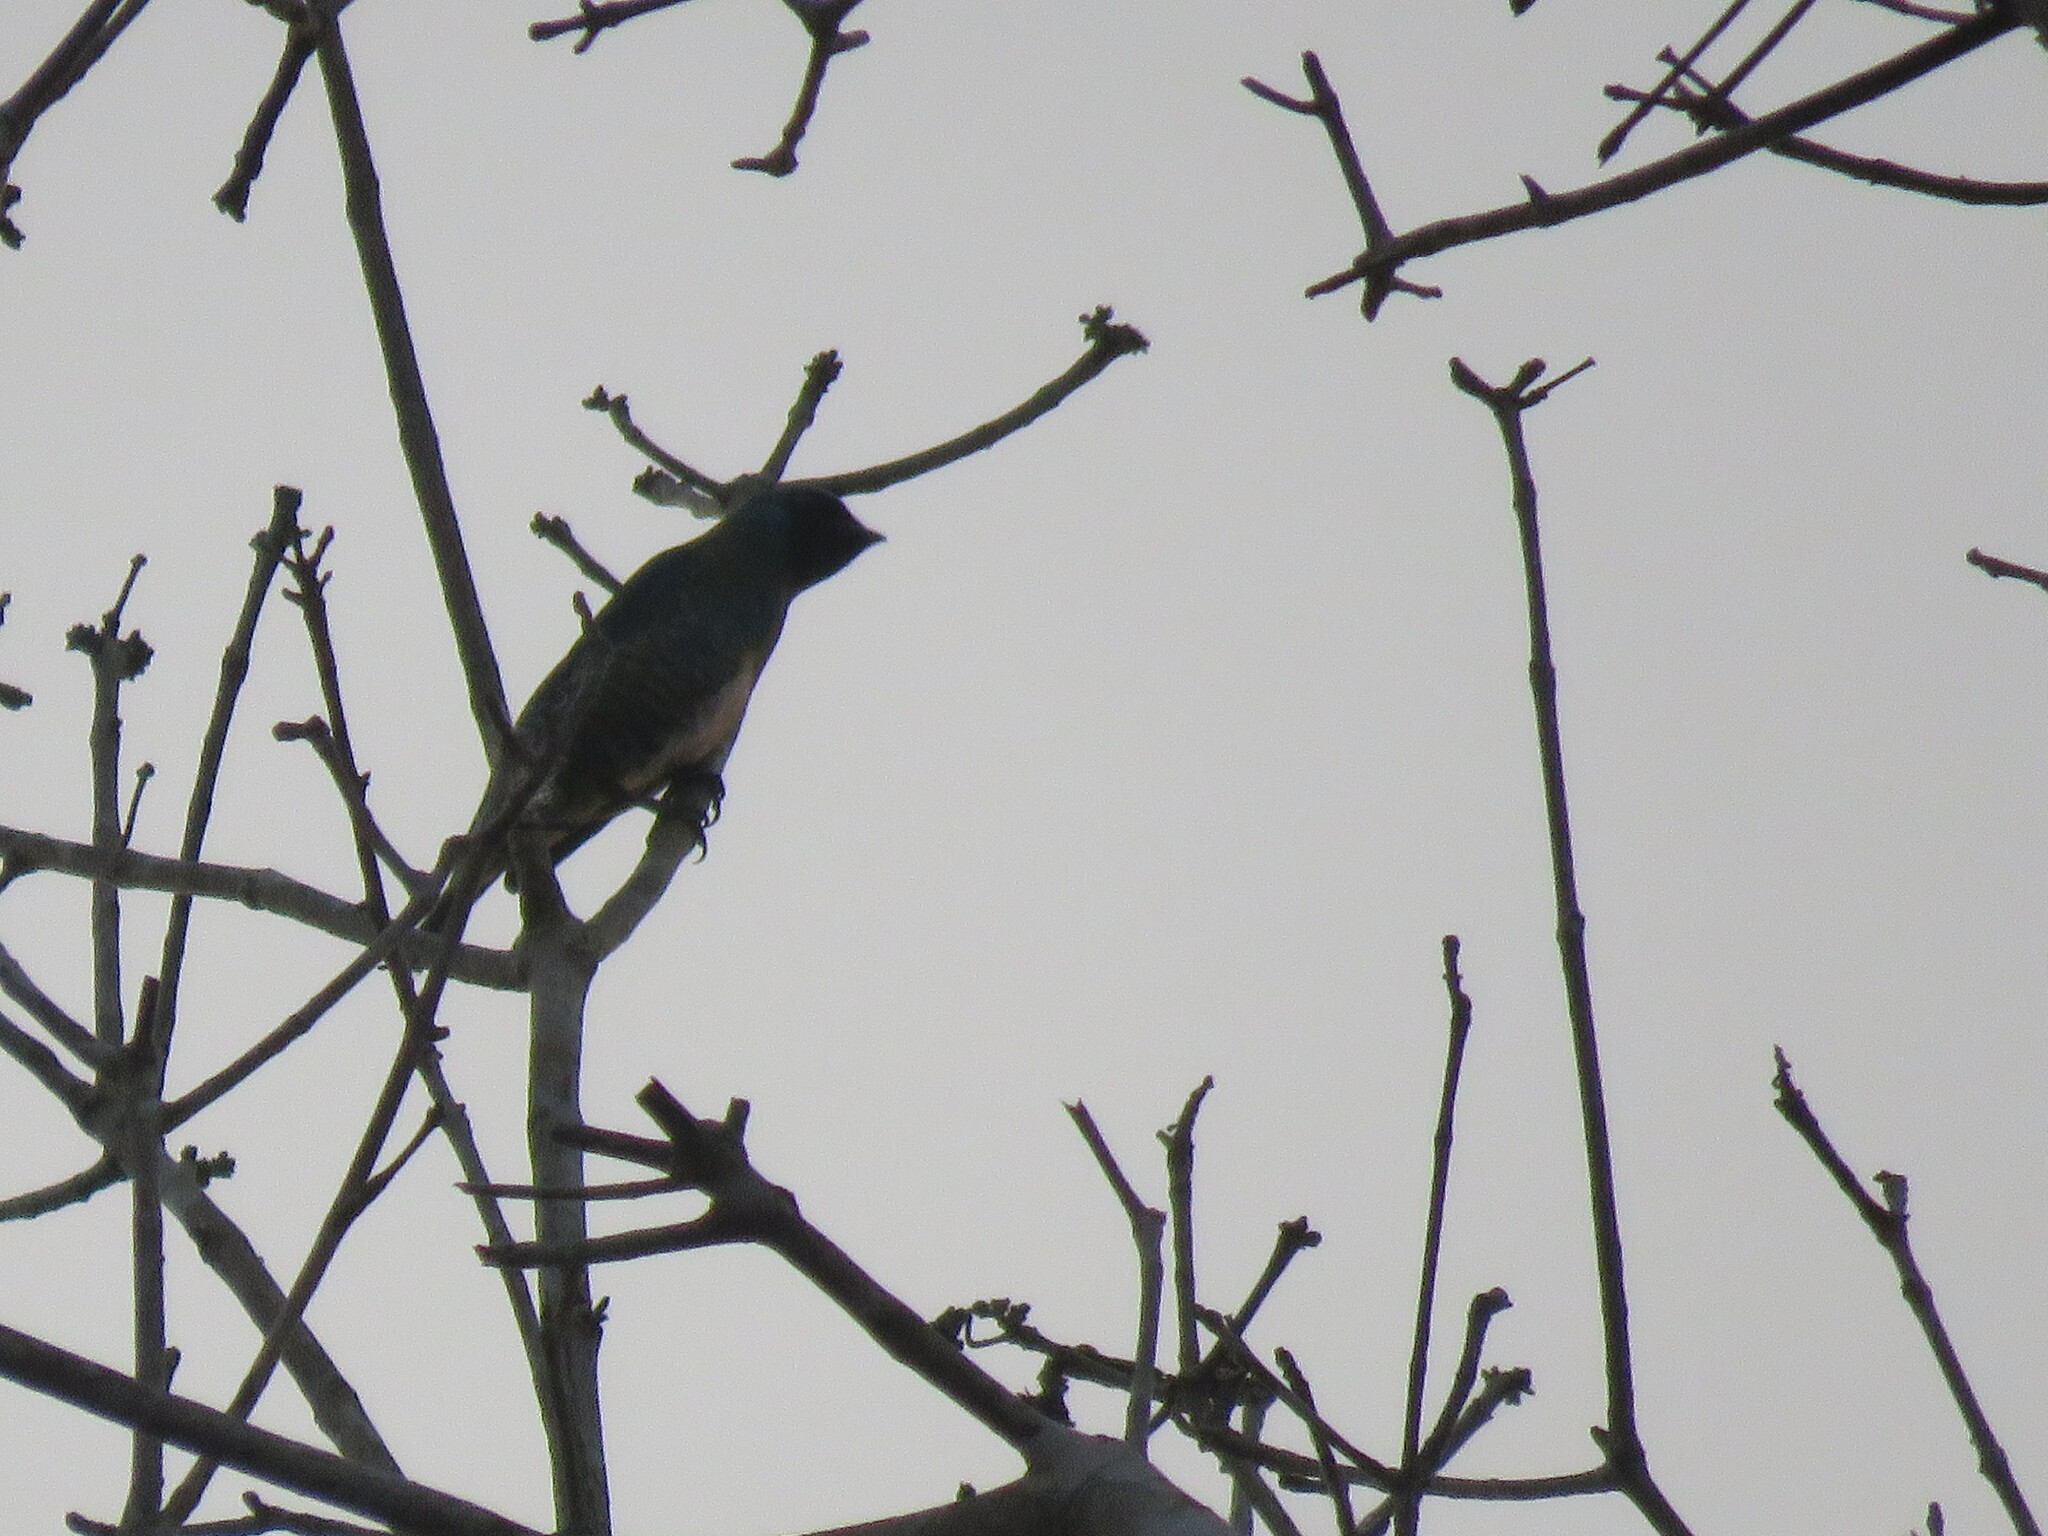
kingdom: Animalia
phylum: Chordata
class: Aves
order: Passeriformes
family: Thraupidae
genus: Tersina
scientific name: Tersina viridis
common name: Swallow tanager
